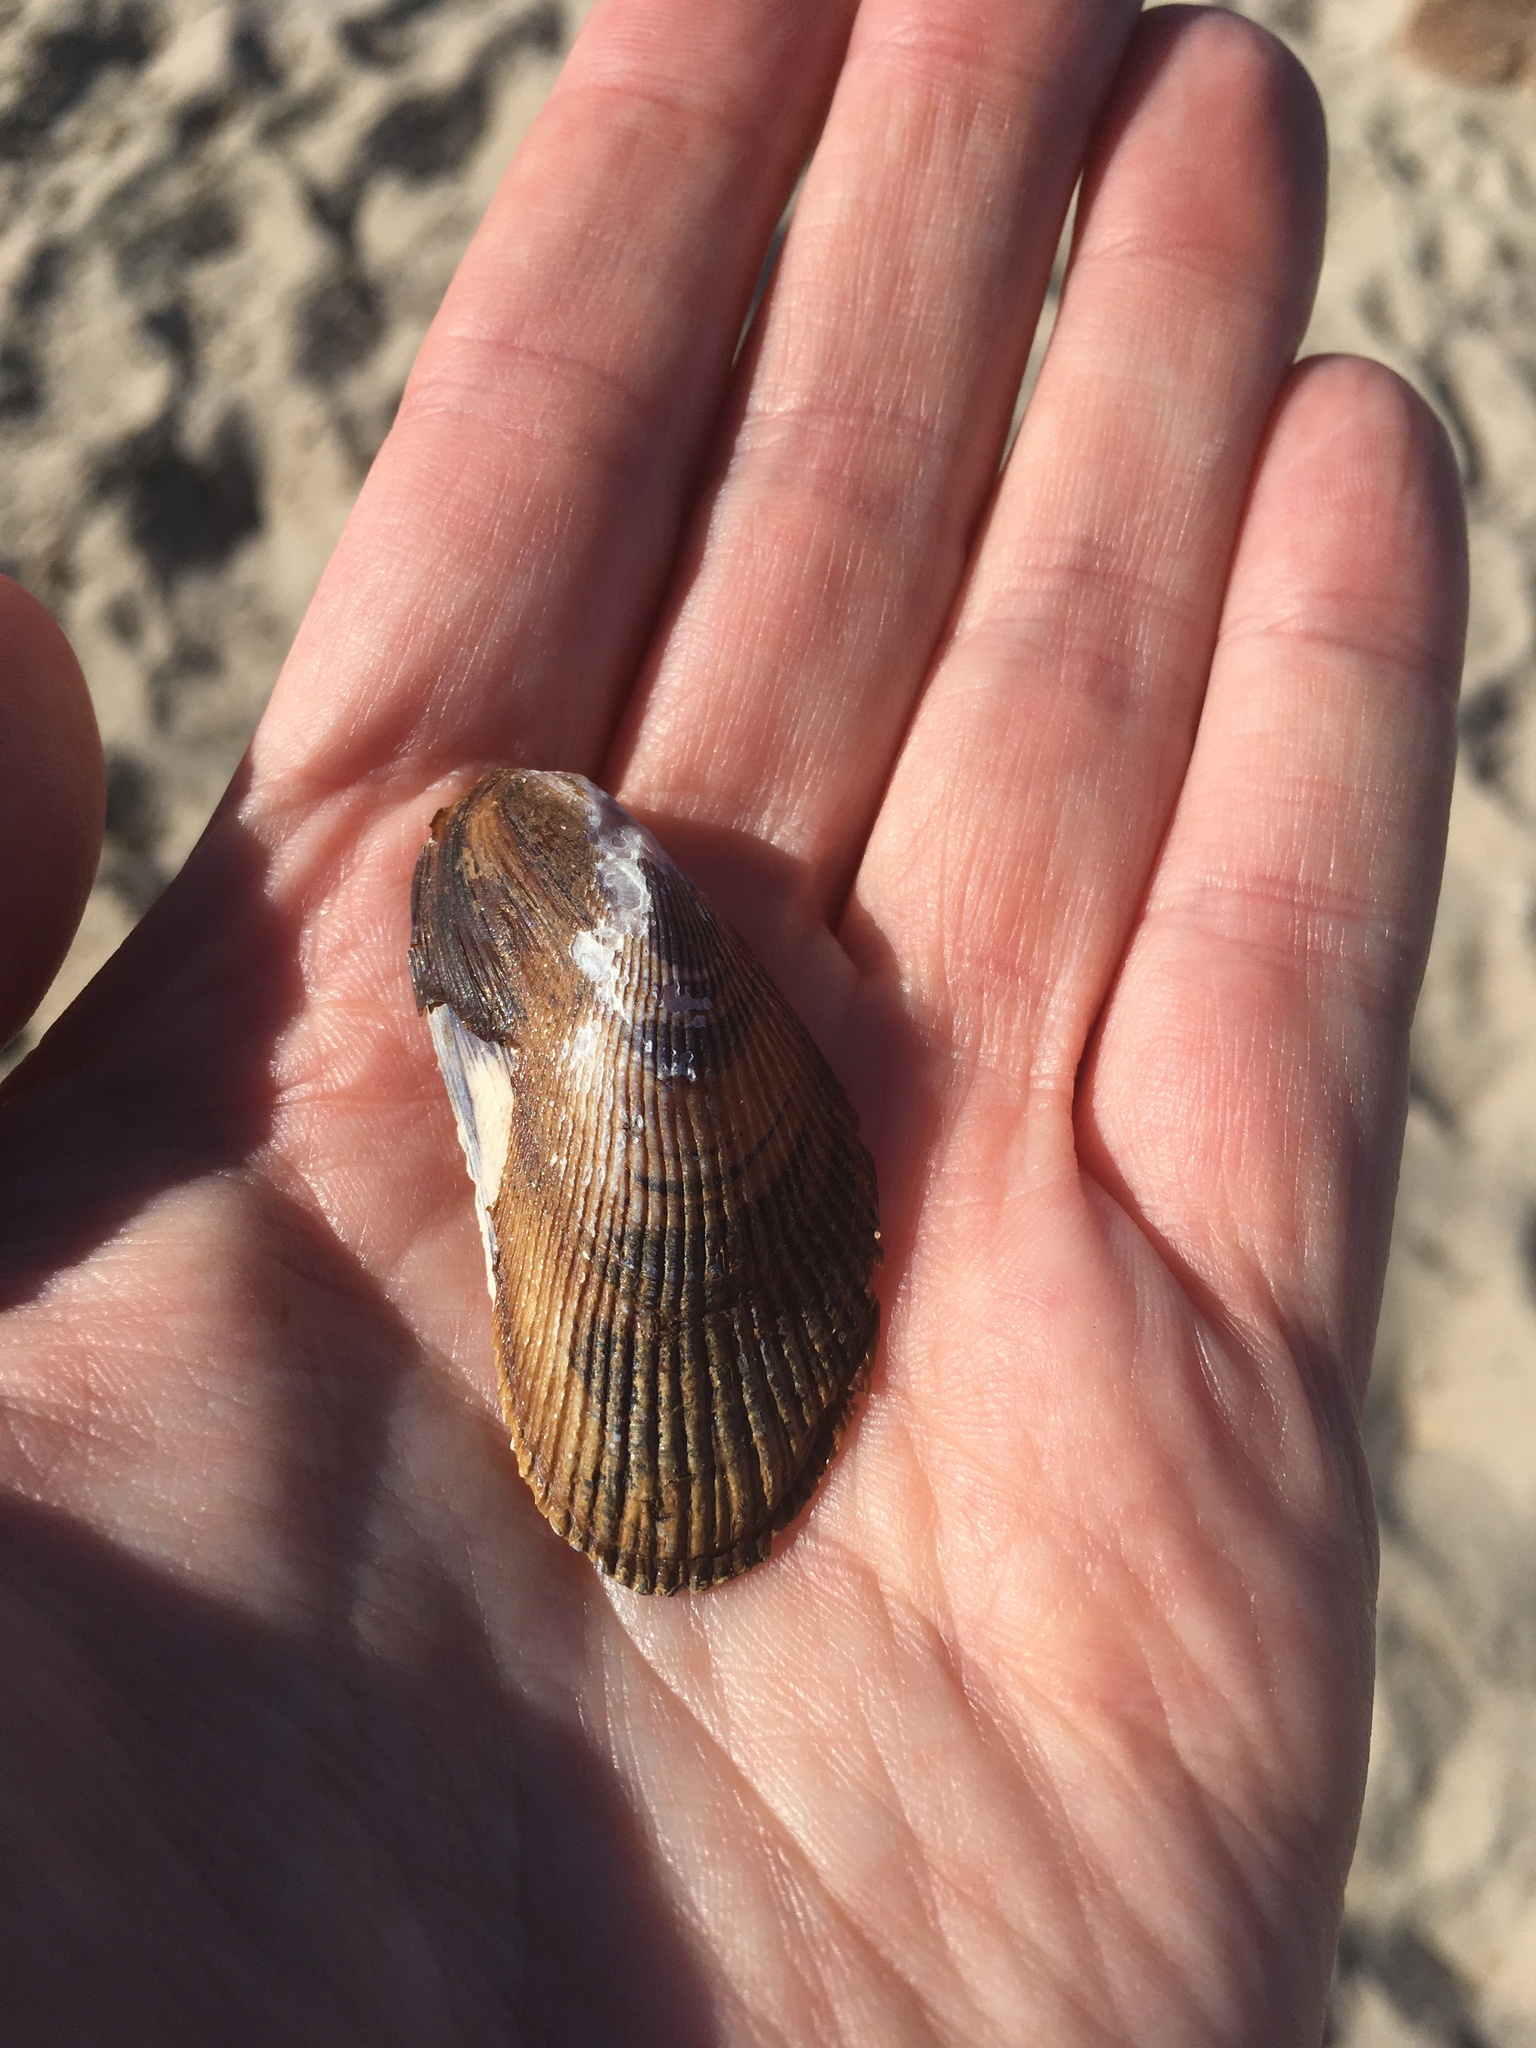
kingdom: Animalia
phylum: Mollusca
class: Bivalvia
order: Mytilida
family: Mytilidae
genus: Geukensia
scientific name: Geukensia demissa
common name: Ribbed mussel
